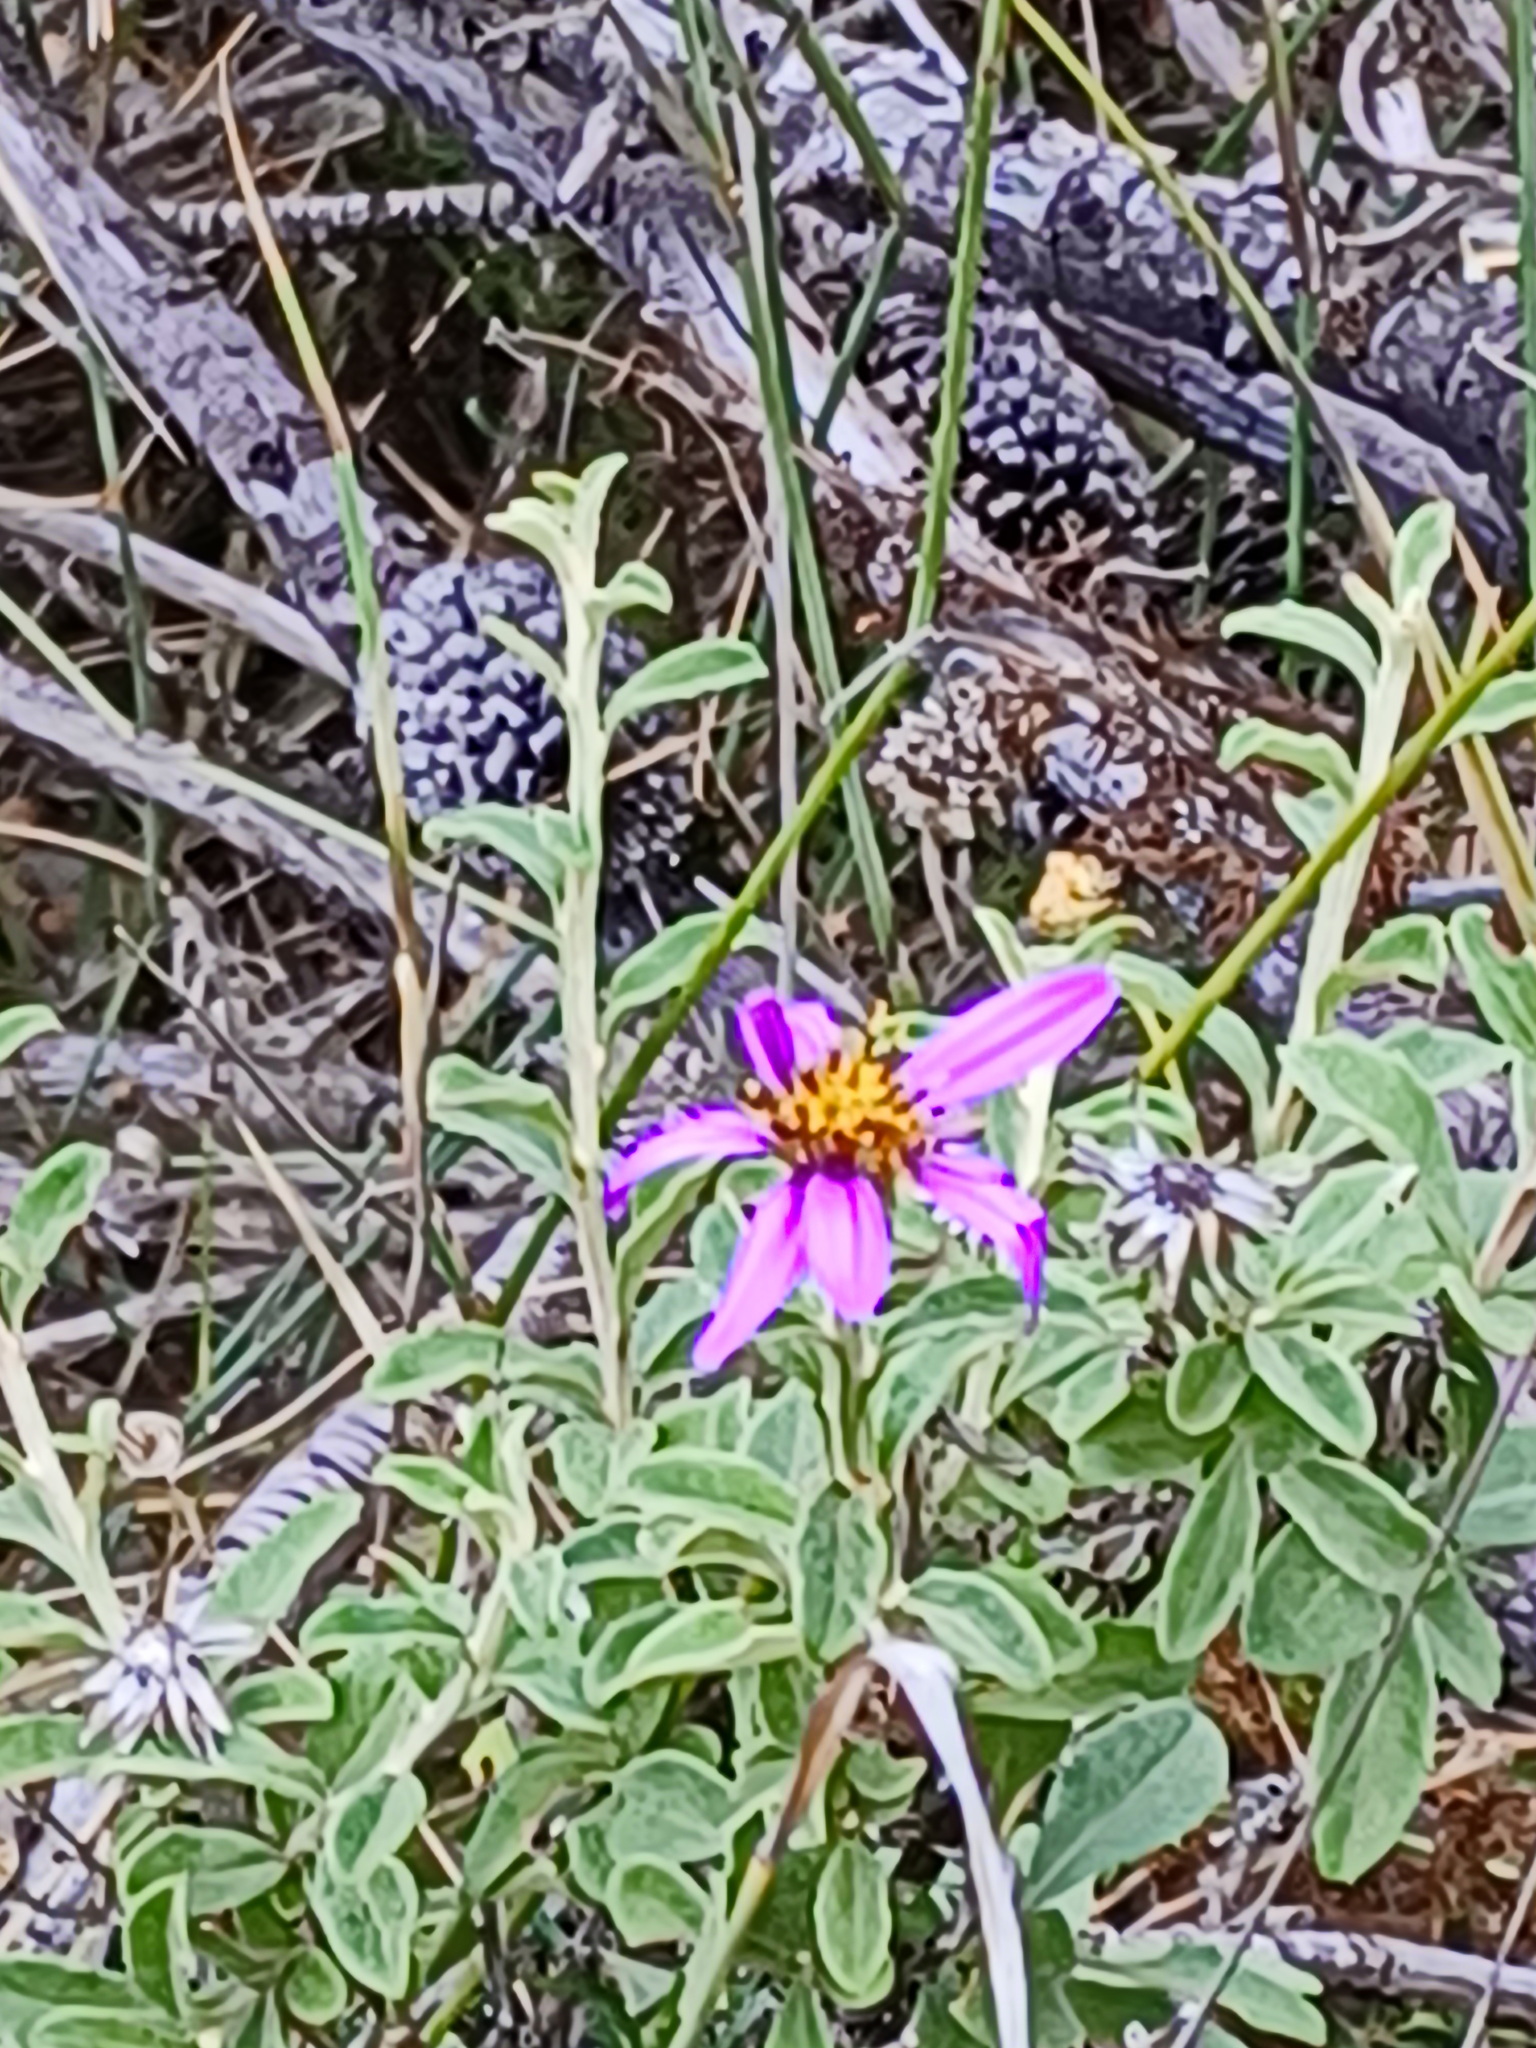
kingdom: Plantae
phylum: Tracheophyta
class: Magnoliopsida
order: Asterales
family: Asteraceae
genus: Printzia
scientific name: Printzia polifolia
